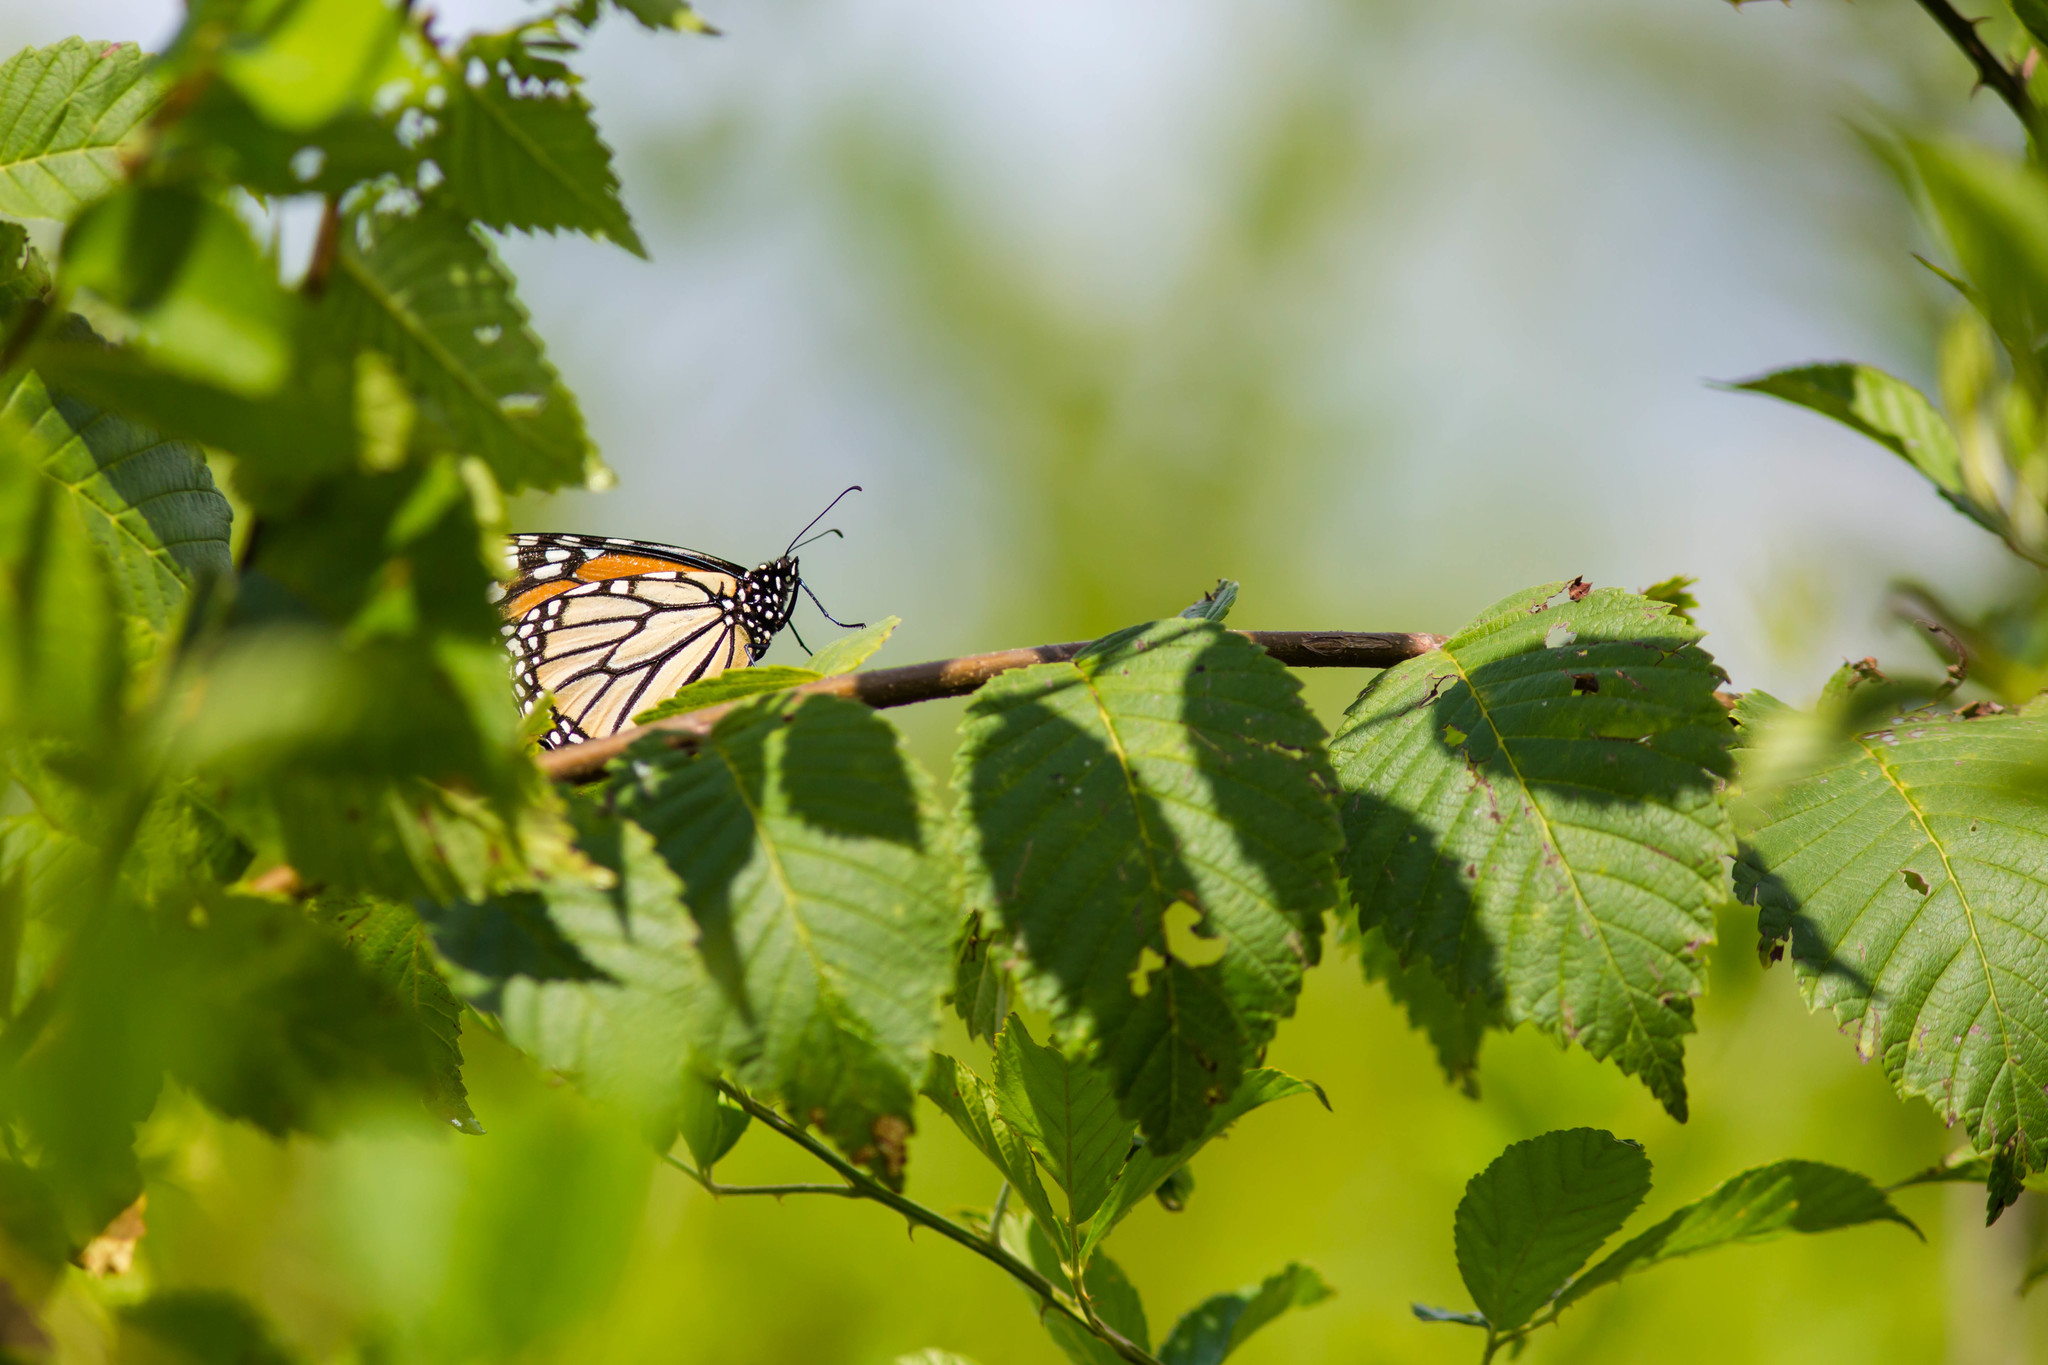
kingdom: Animalia
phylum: Arthropoda
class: Insecta
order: Lepidoptera
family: Nymphalidae
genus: Danaus
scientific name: Danaus plexippus
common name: Monarch
